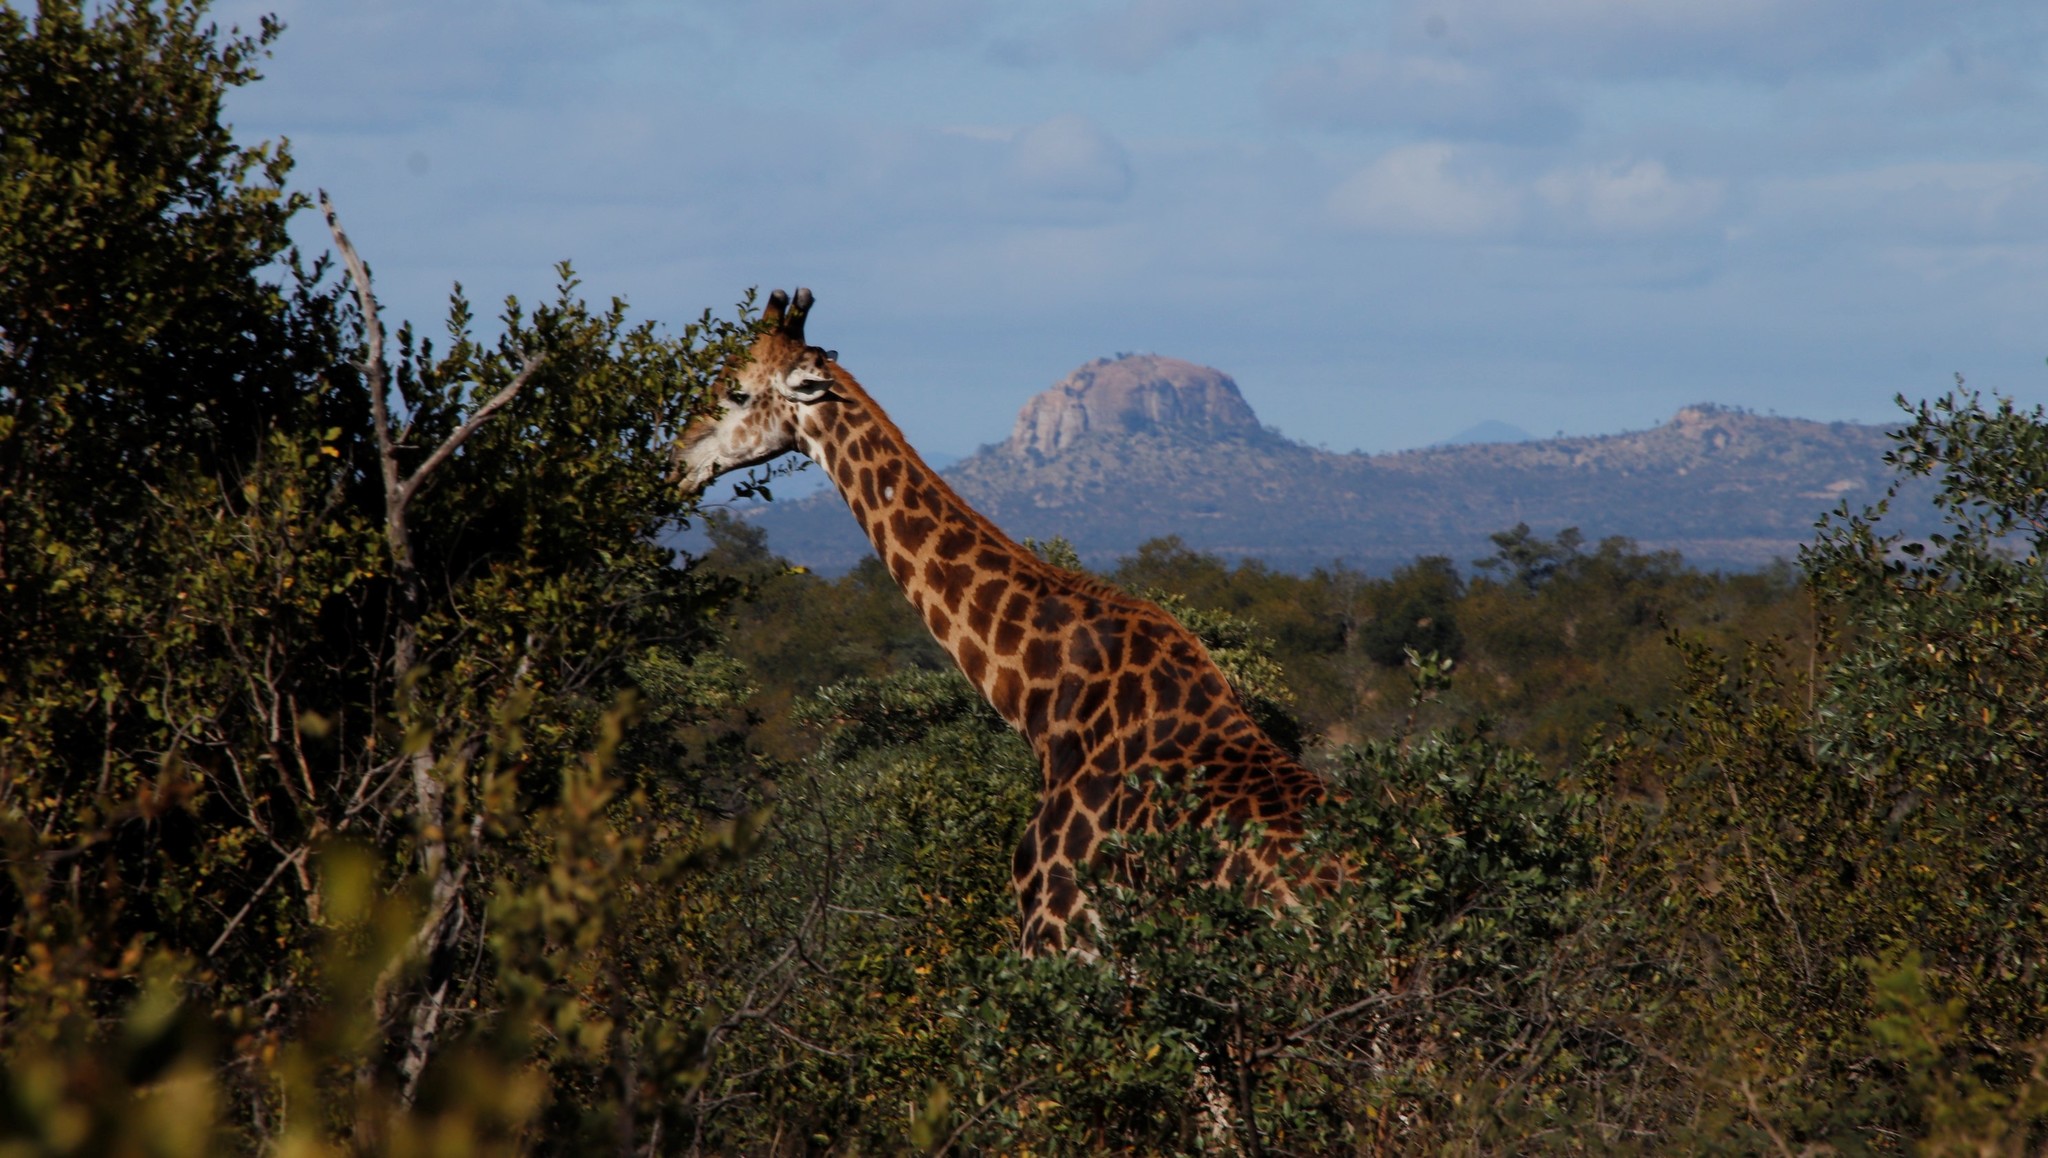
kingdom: Animalia
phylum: Chordata
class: Mammalia
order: Artiodactyla
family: Giraffidae
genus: Giraffa
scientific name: Giraffa giraffa
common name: Southern giraffe
